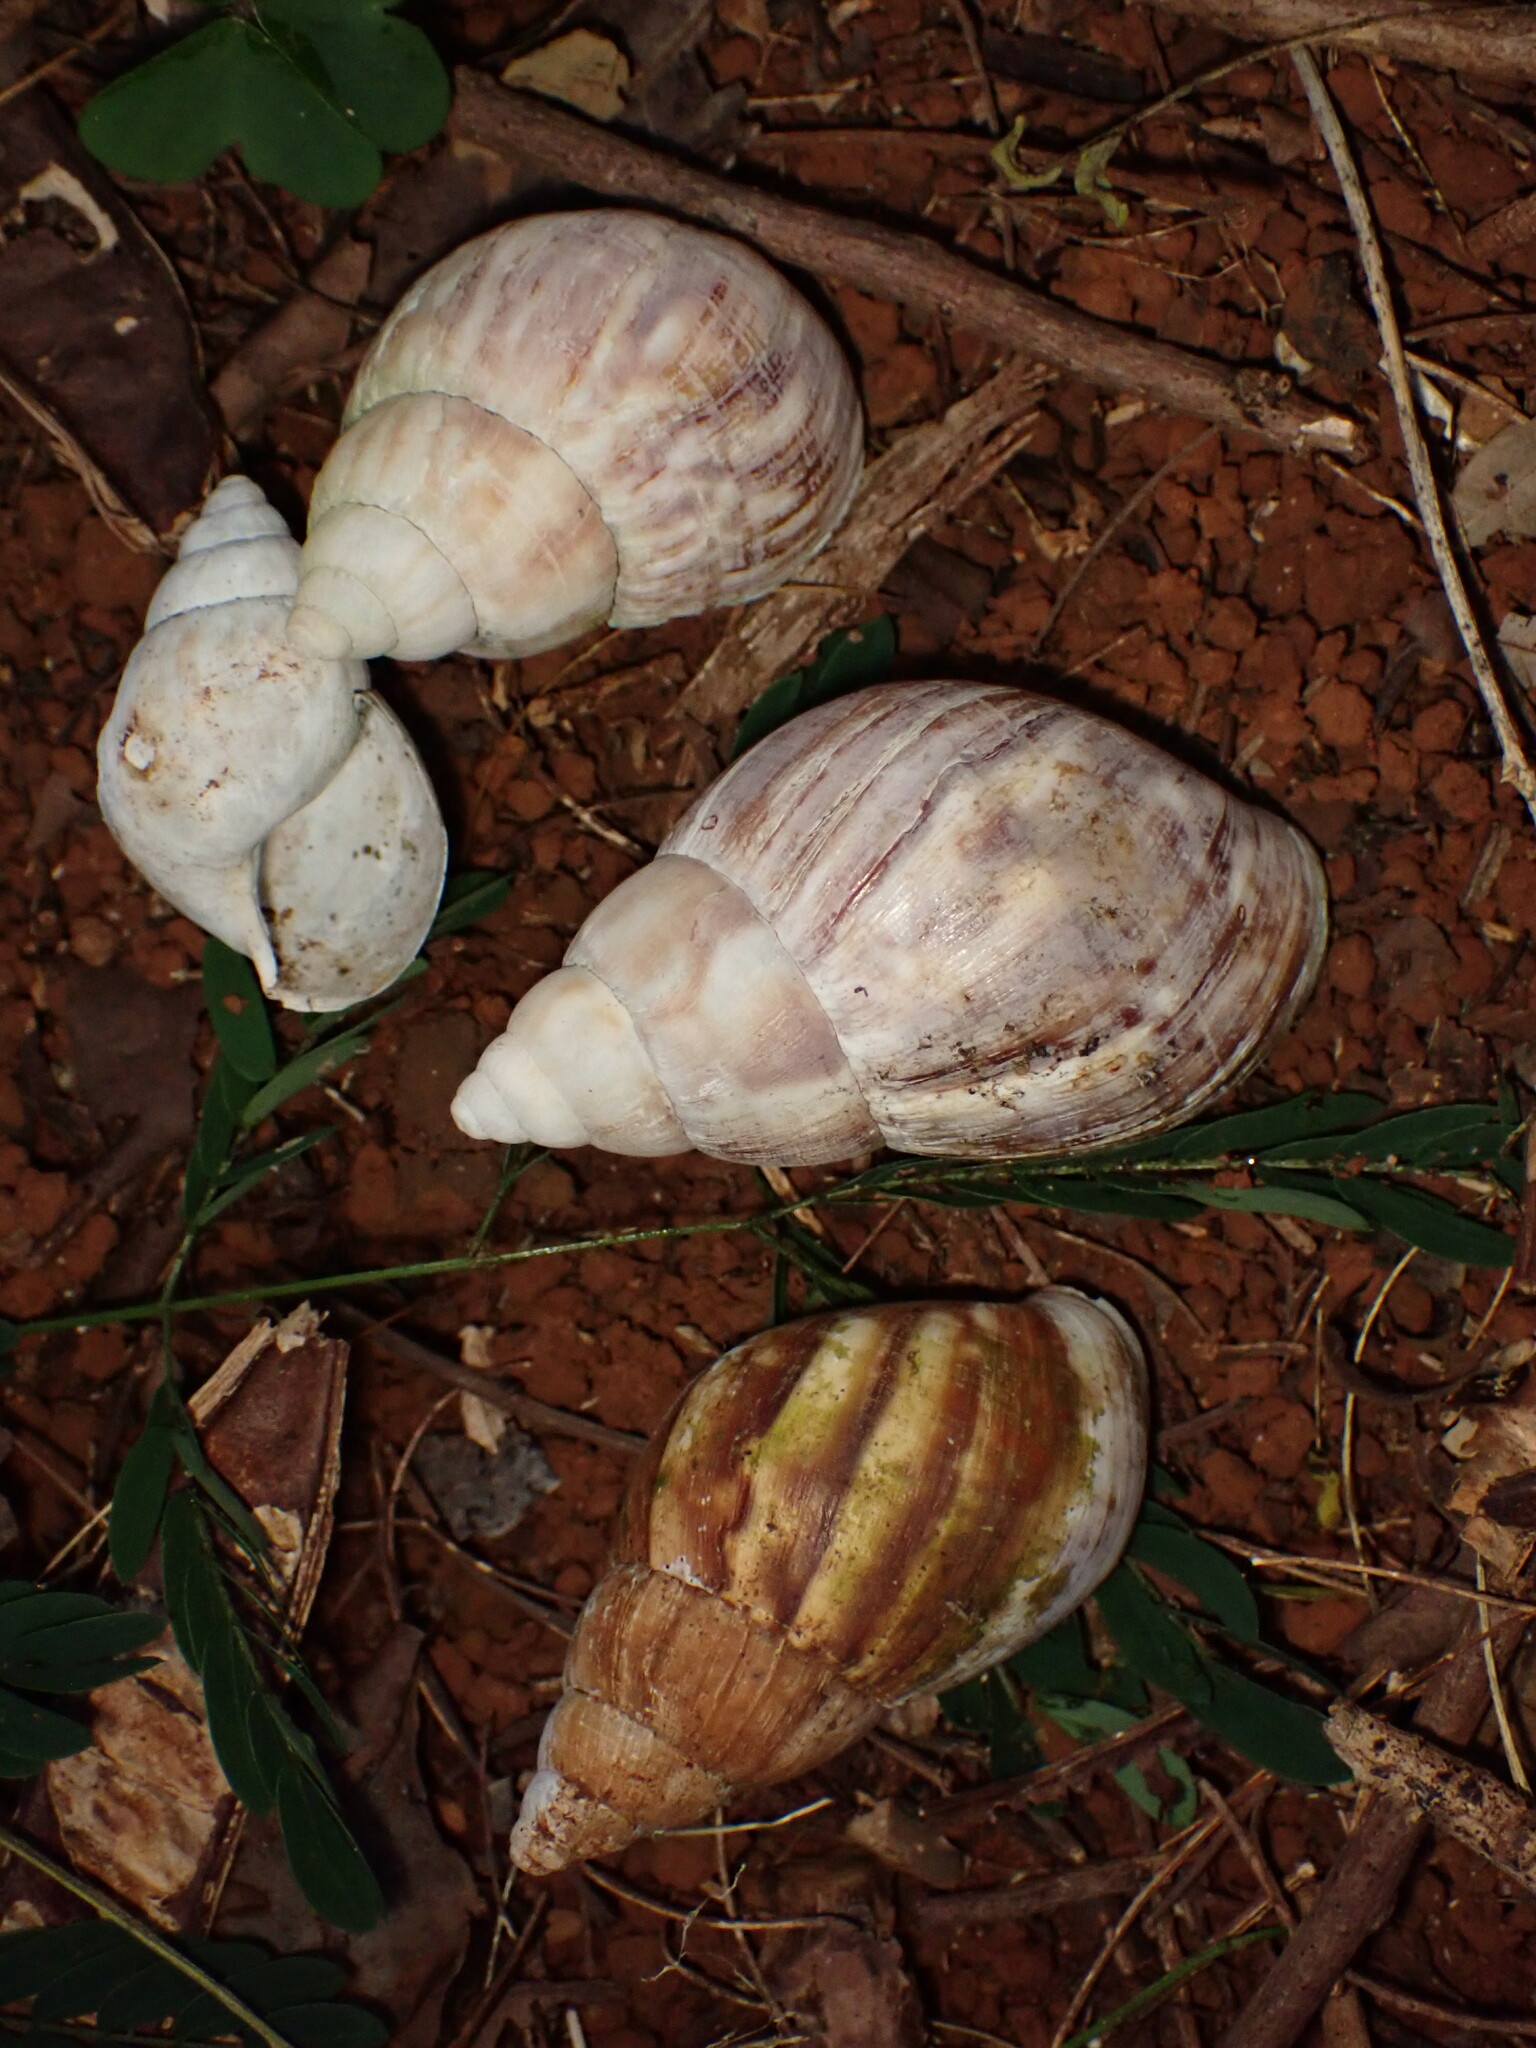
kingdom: Animalia
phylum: Mollusca
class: Gastropoda
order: Stylommatophora
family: Achatinidae
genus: Lissachatina
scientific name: Lissachatina fulica
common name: Giant african snail
